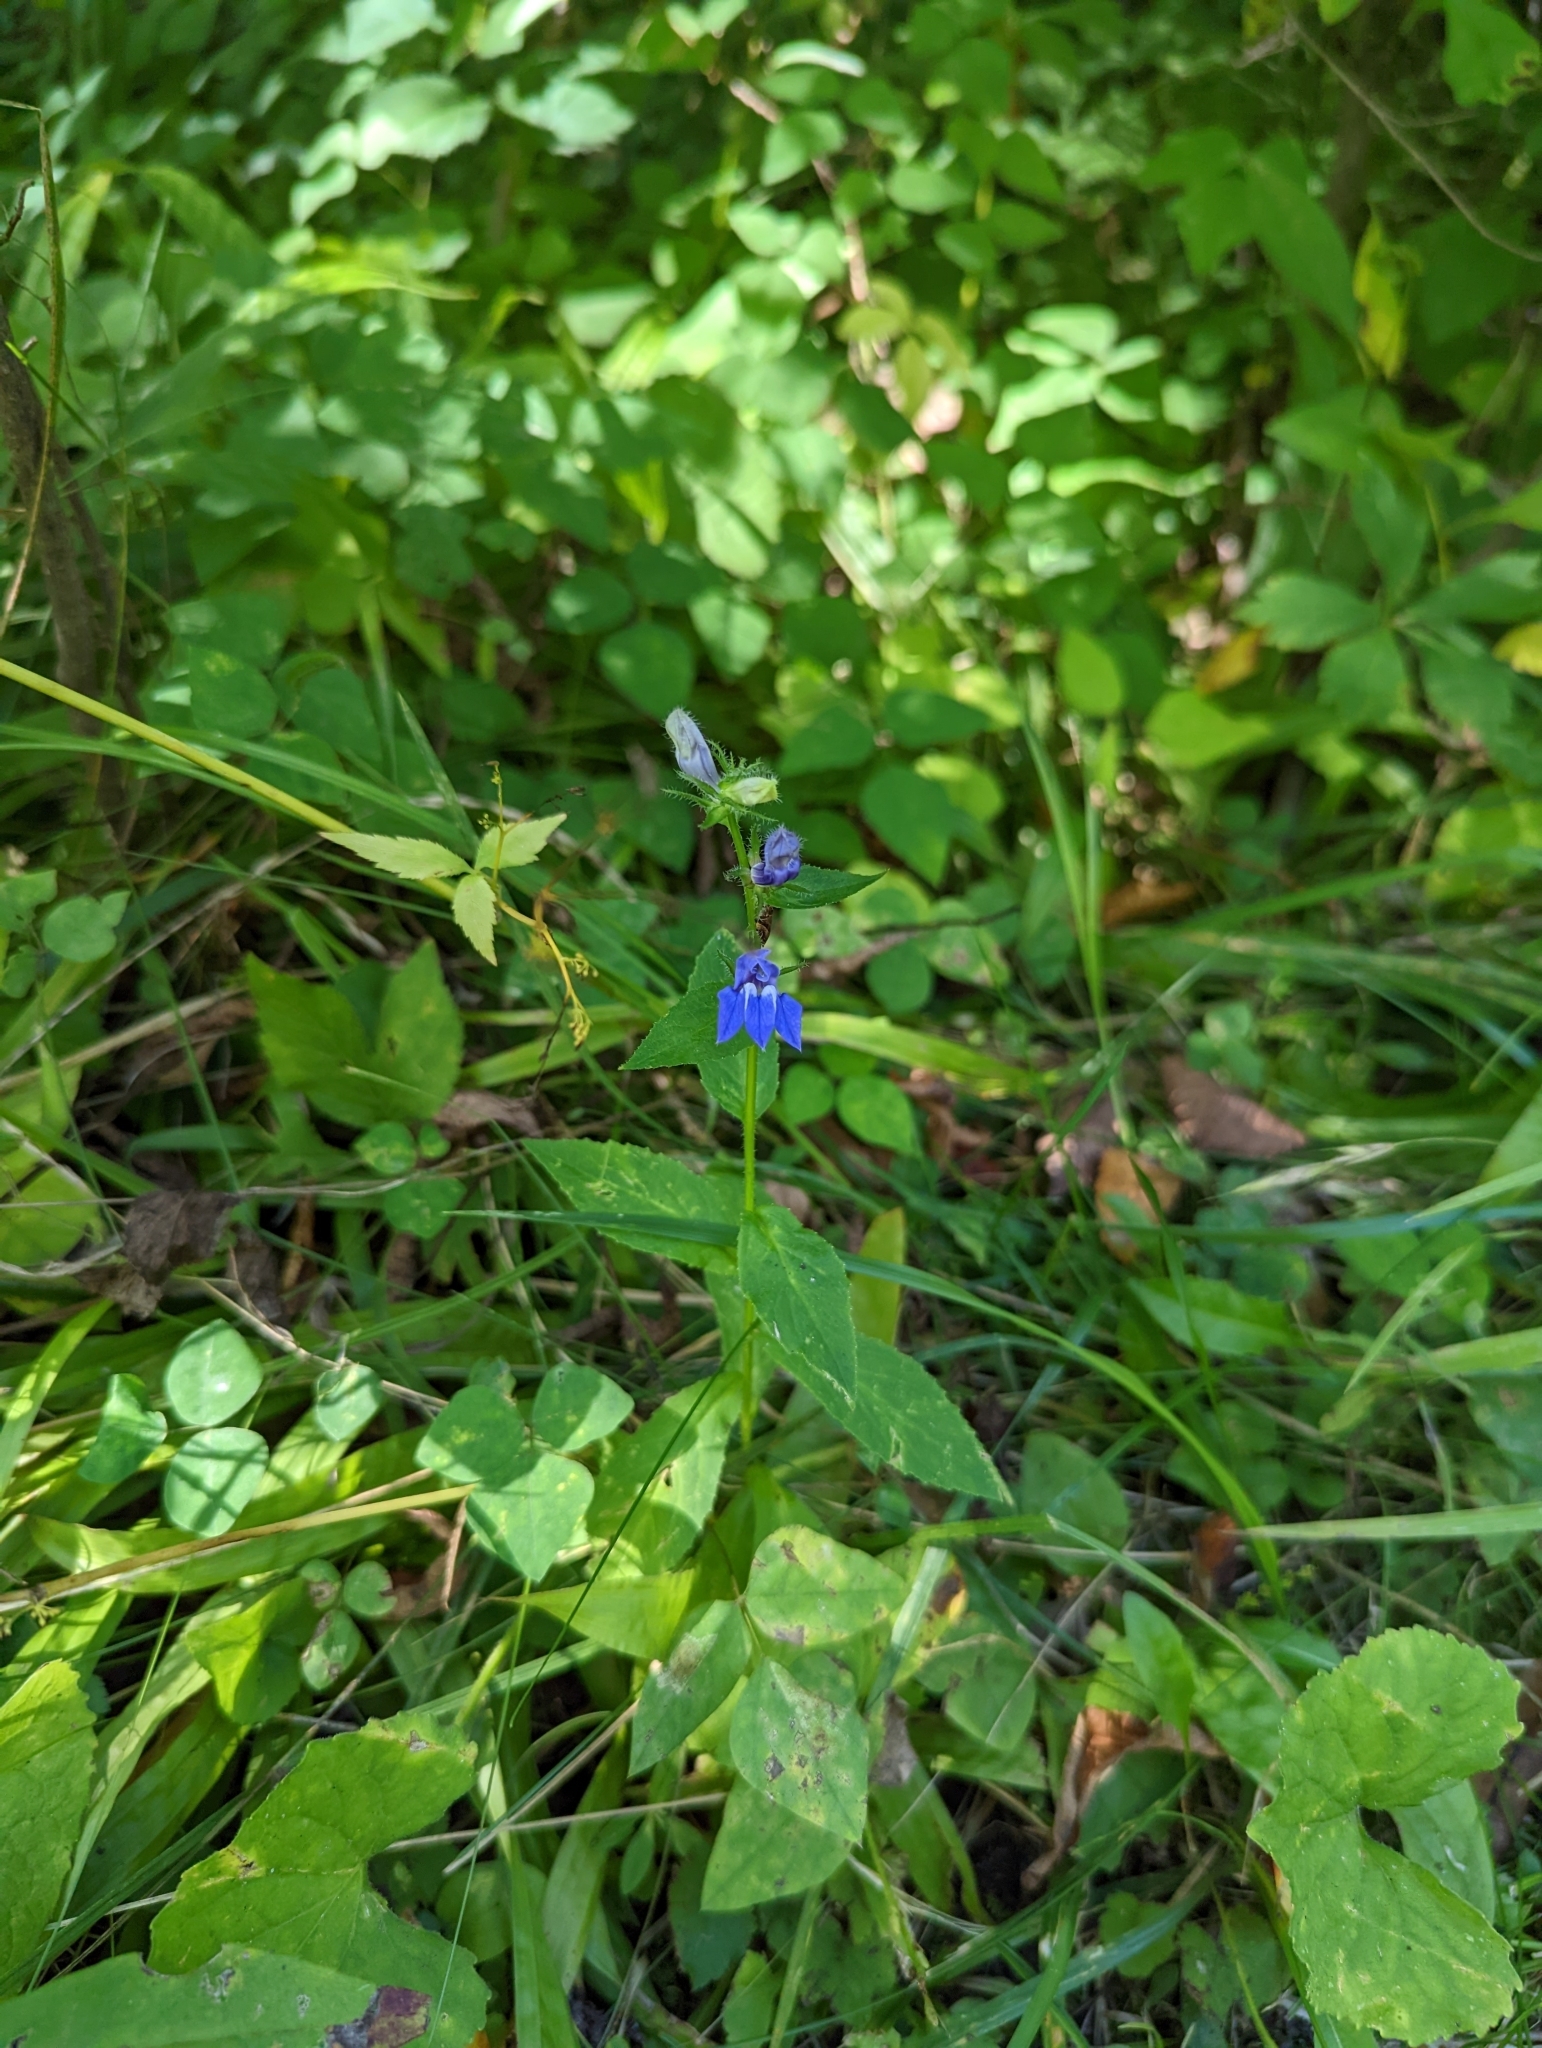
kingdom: Plantae
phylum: Tracheophyta
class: Magnoliopsida
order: Asterales
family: Campanulaceae
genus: Lobelia
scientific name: Lobelia siphilitica
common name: Great lobelia
